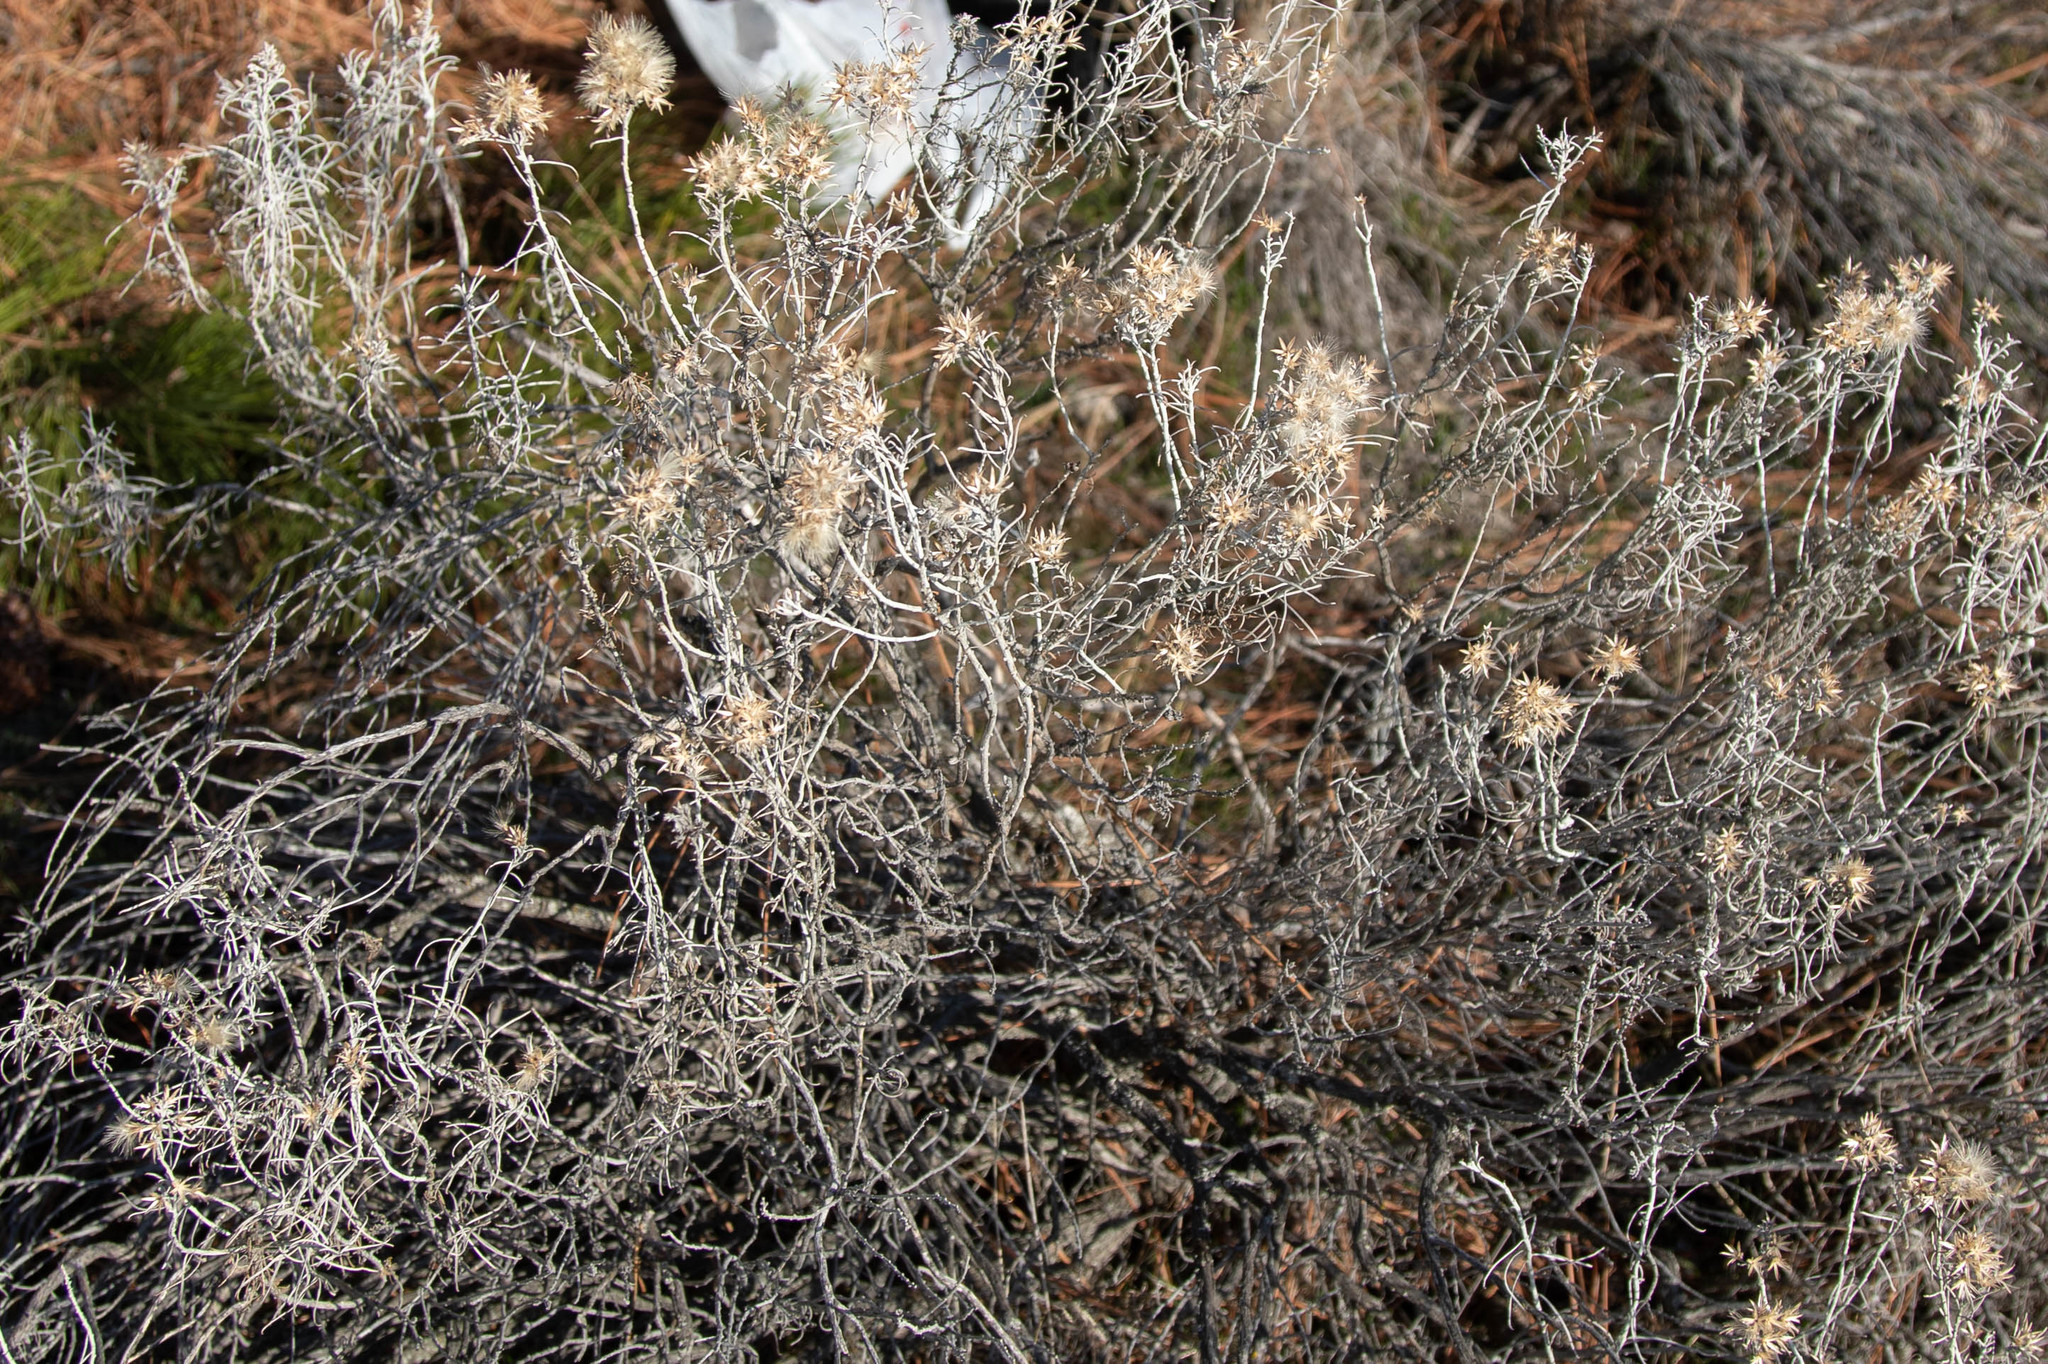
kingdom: Plantae
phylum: Tracheophyta
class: Magnoliopsida
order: Asterales
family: Asteraceae
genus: Ericameria
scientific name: Ericameria nauseosa
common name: Rubber rabbitbrush
